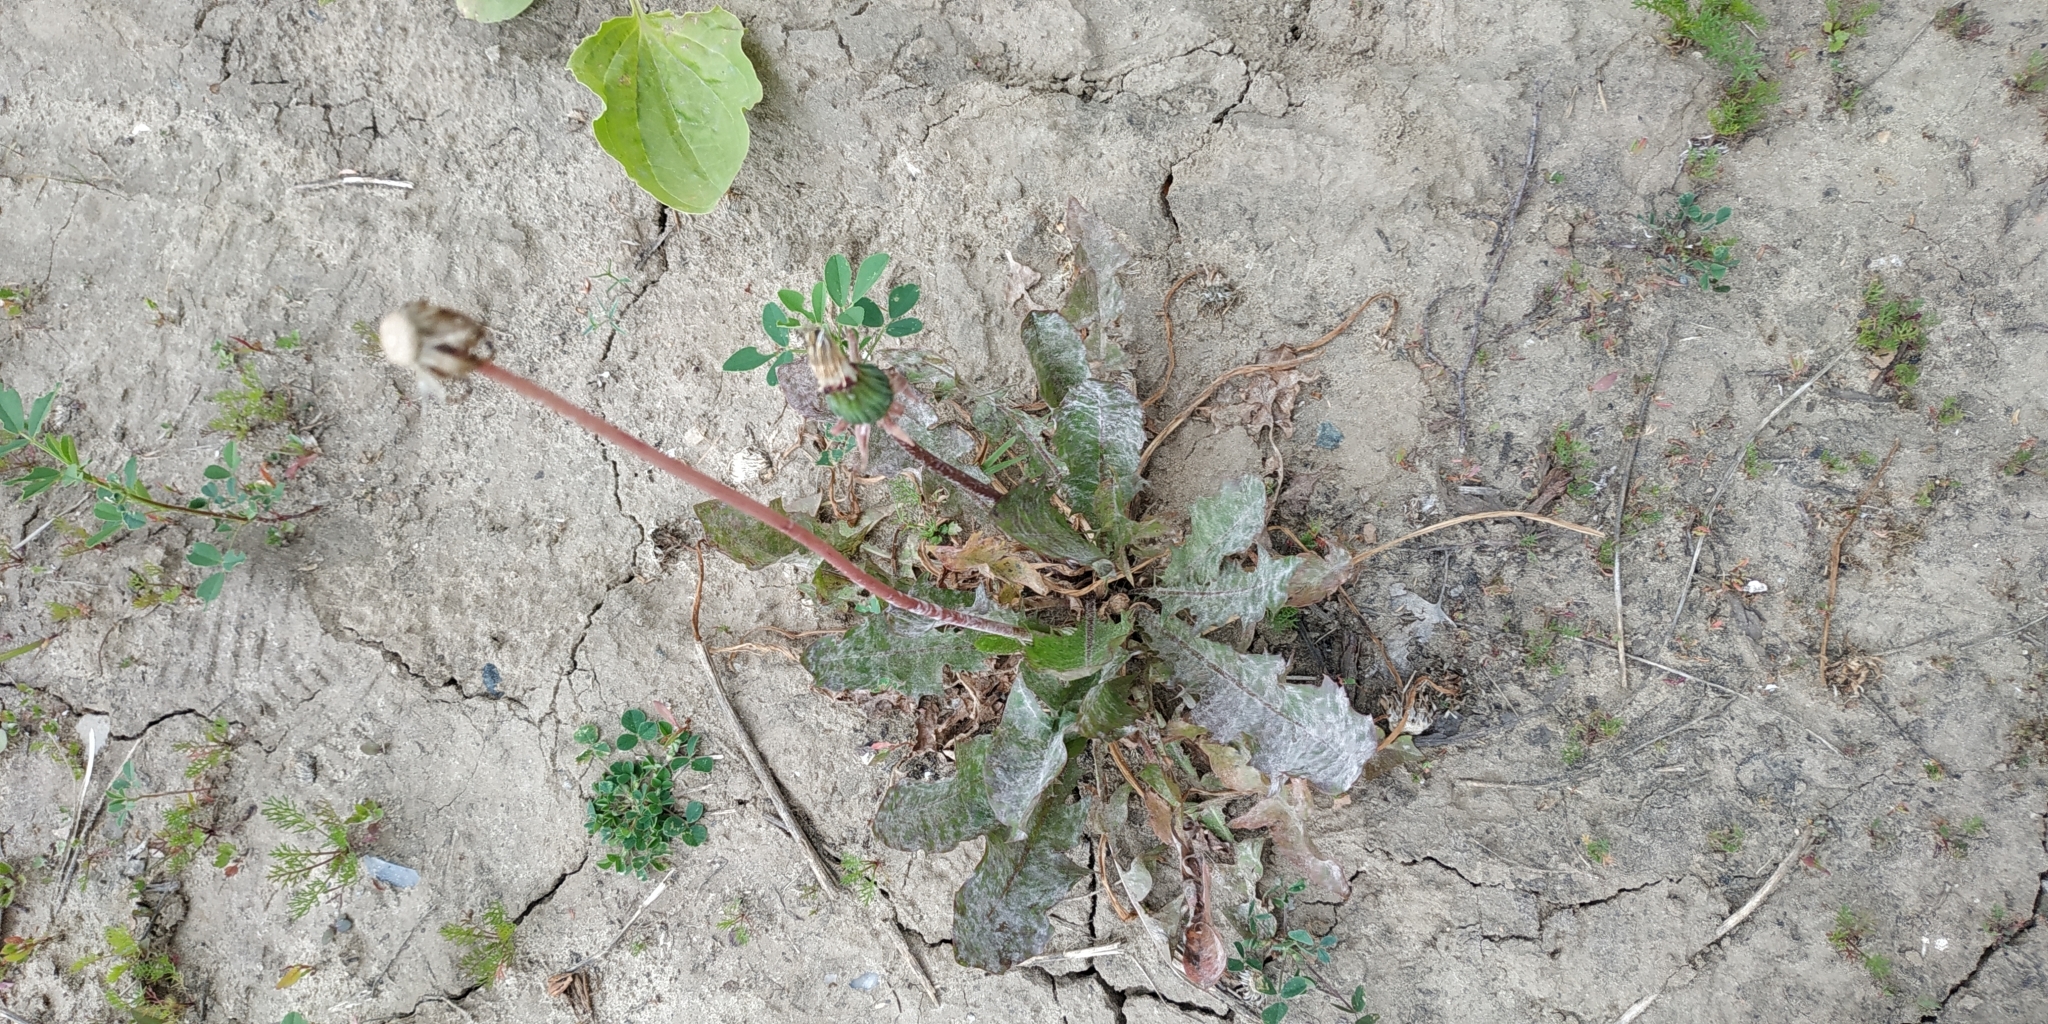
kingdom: Plantae
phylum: Tracheophyta
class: Magnoliopsida
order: Asterales
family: Asteraceae
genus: Taraxacum
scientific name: Taraxacum officinale
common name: Common dandelion
